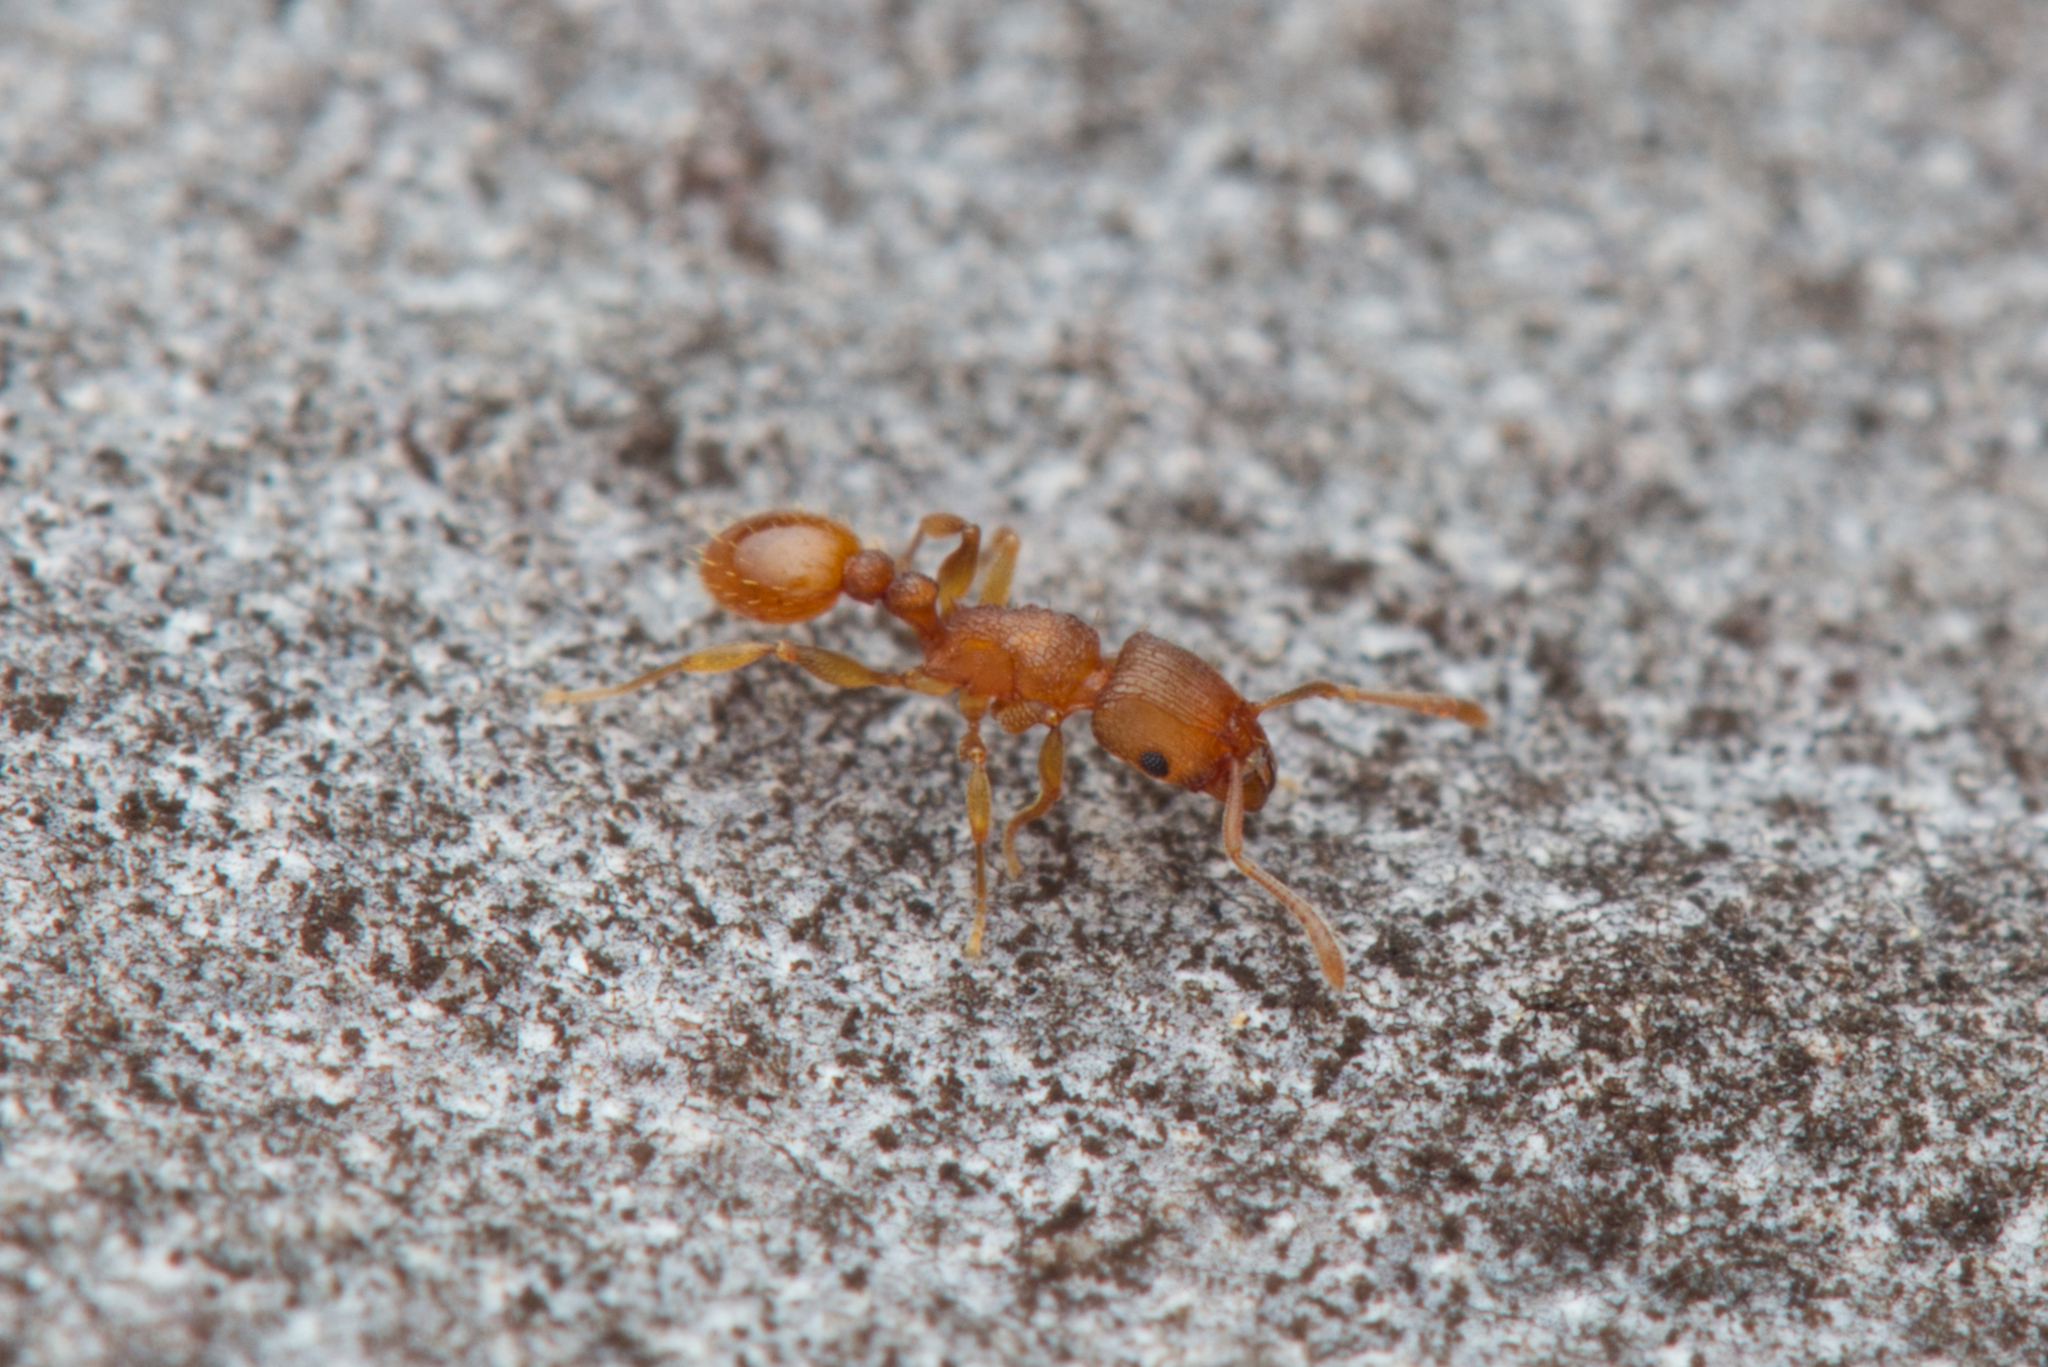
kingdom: Animalia
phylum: Arthropoda
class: Insecta
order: Hymenoptera
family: Formicidae
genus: Tetramorium
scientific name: Tetramorium simillimum
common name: Ant
